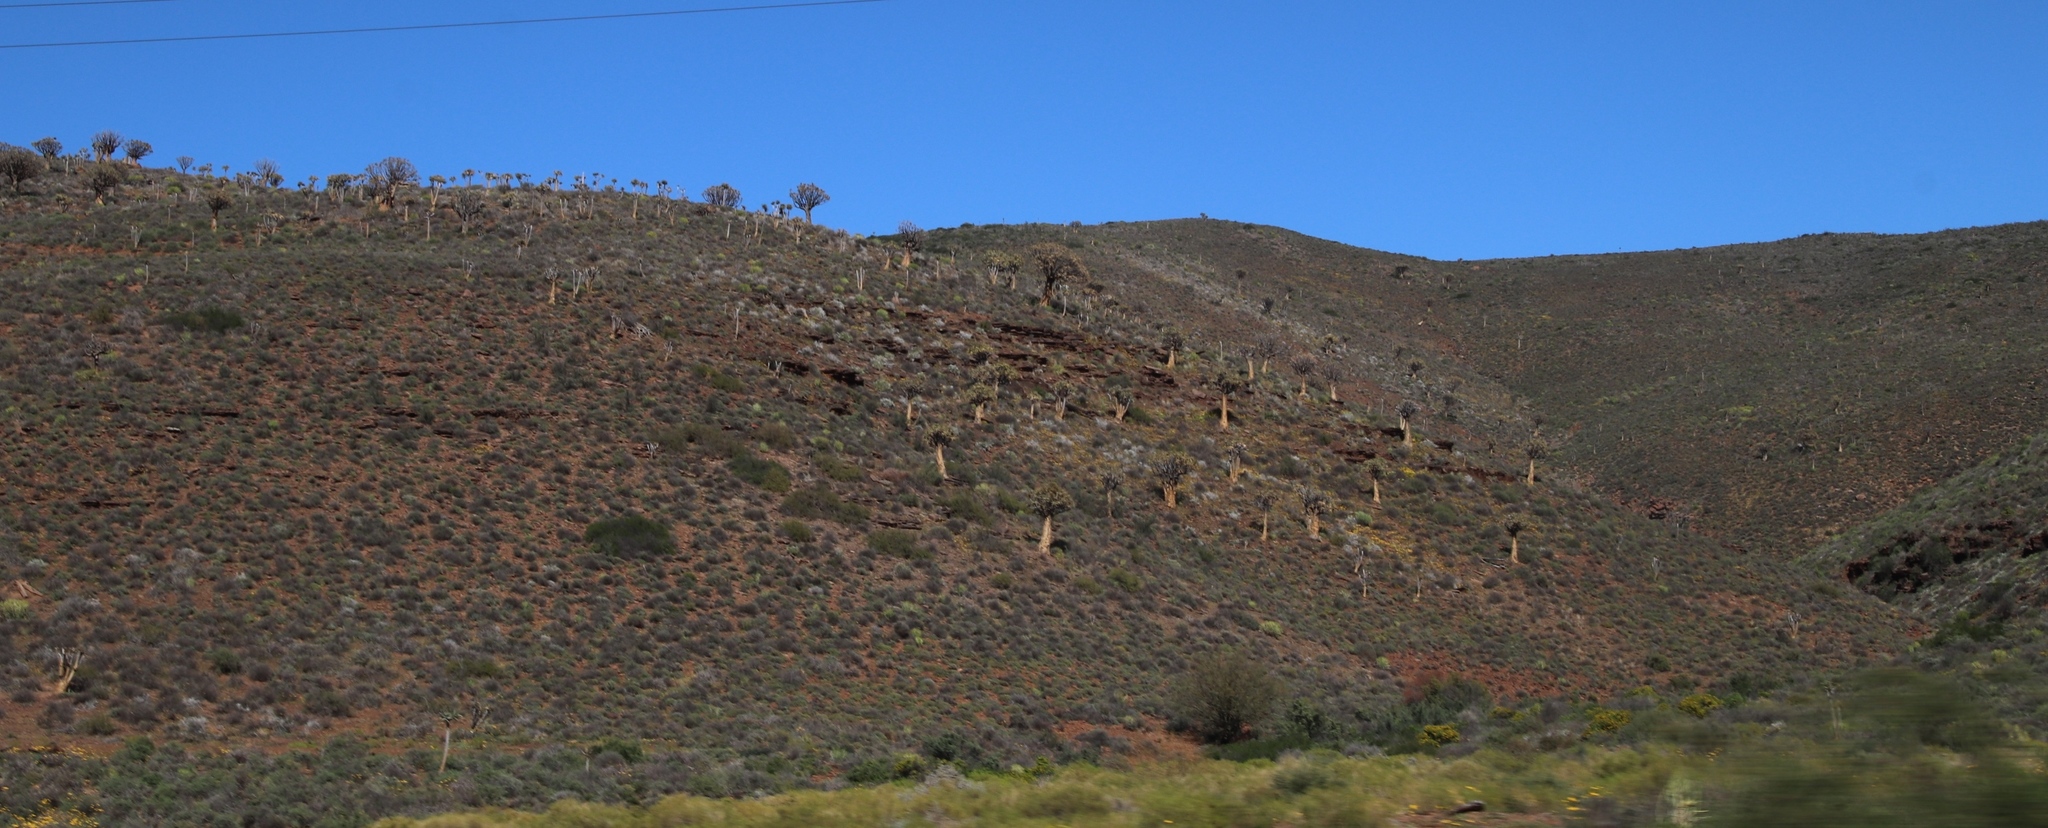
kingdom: Plantae
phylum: Tracheophyta
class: Liliopsida
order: Asparagales
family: Asphodelaceae
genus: Aloidendron
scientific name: Aloidendron dichotomum
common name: Quiver tree
